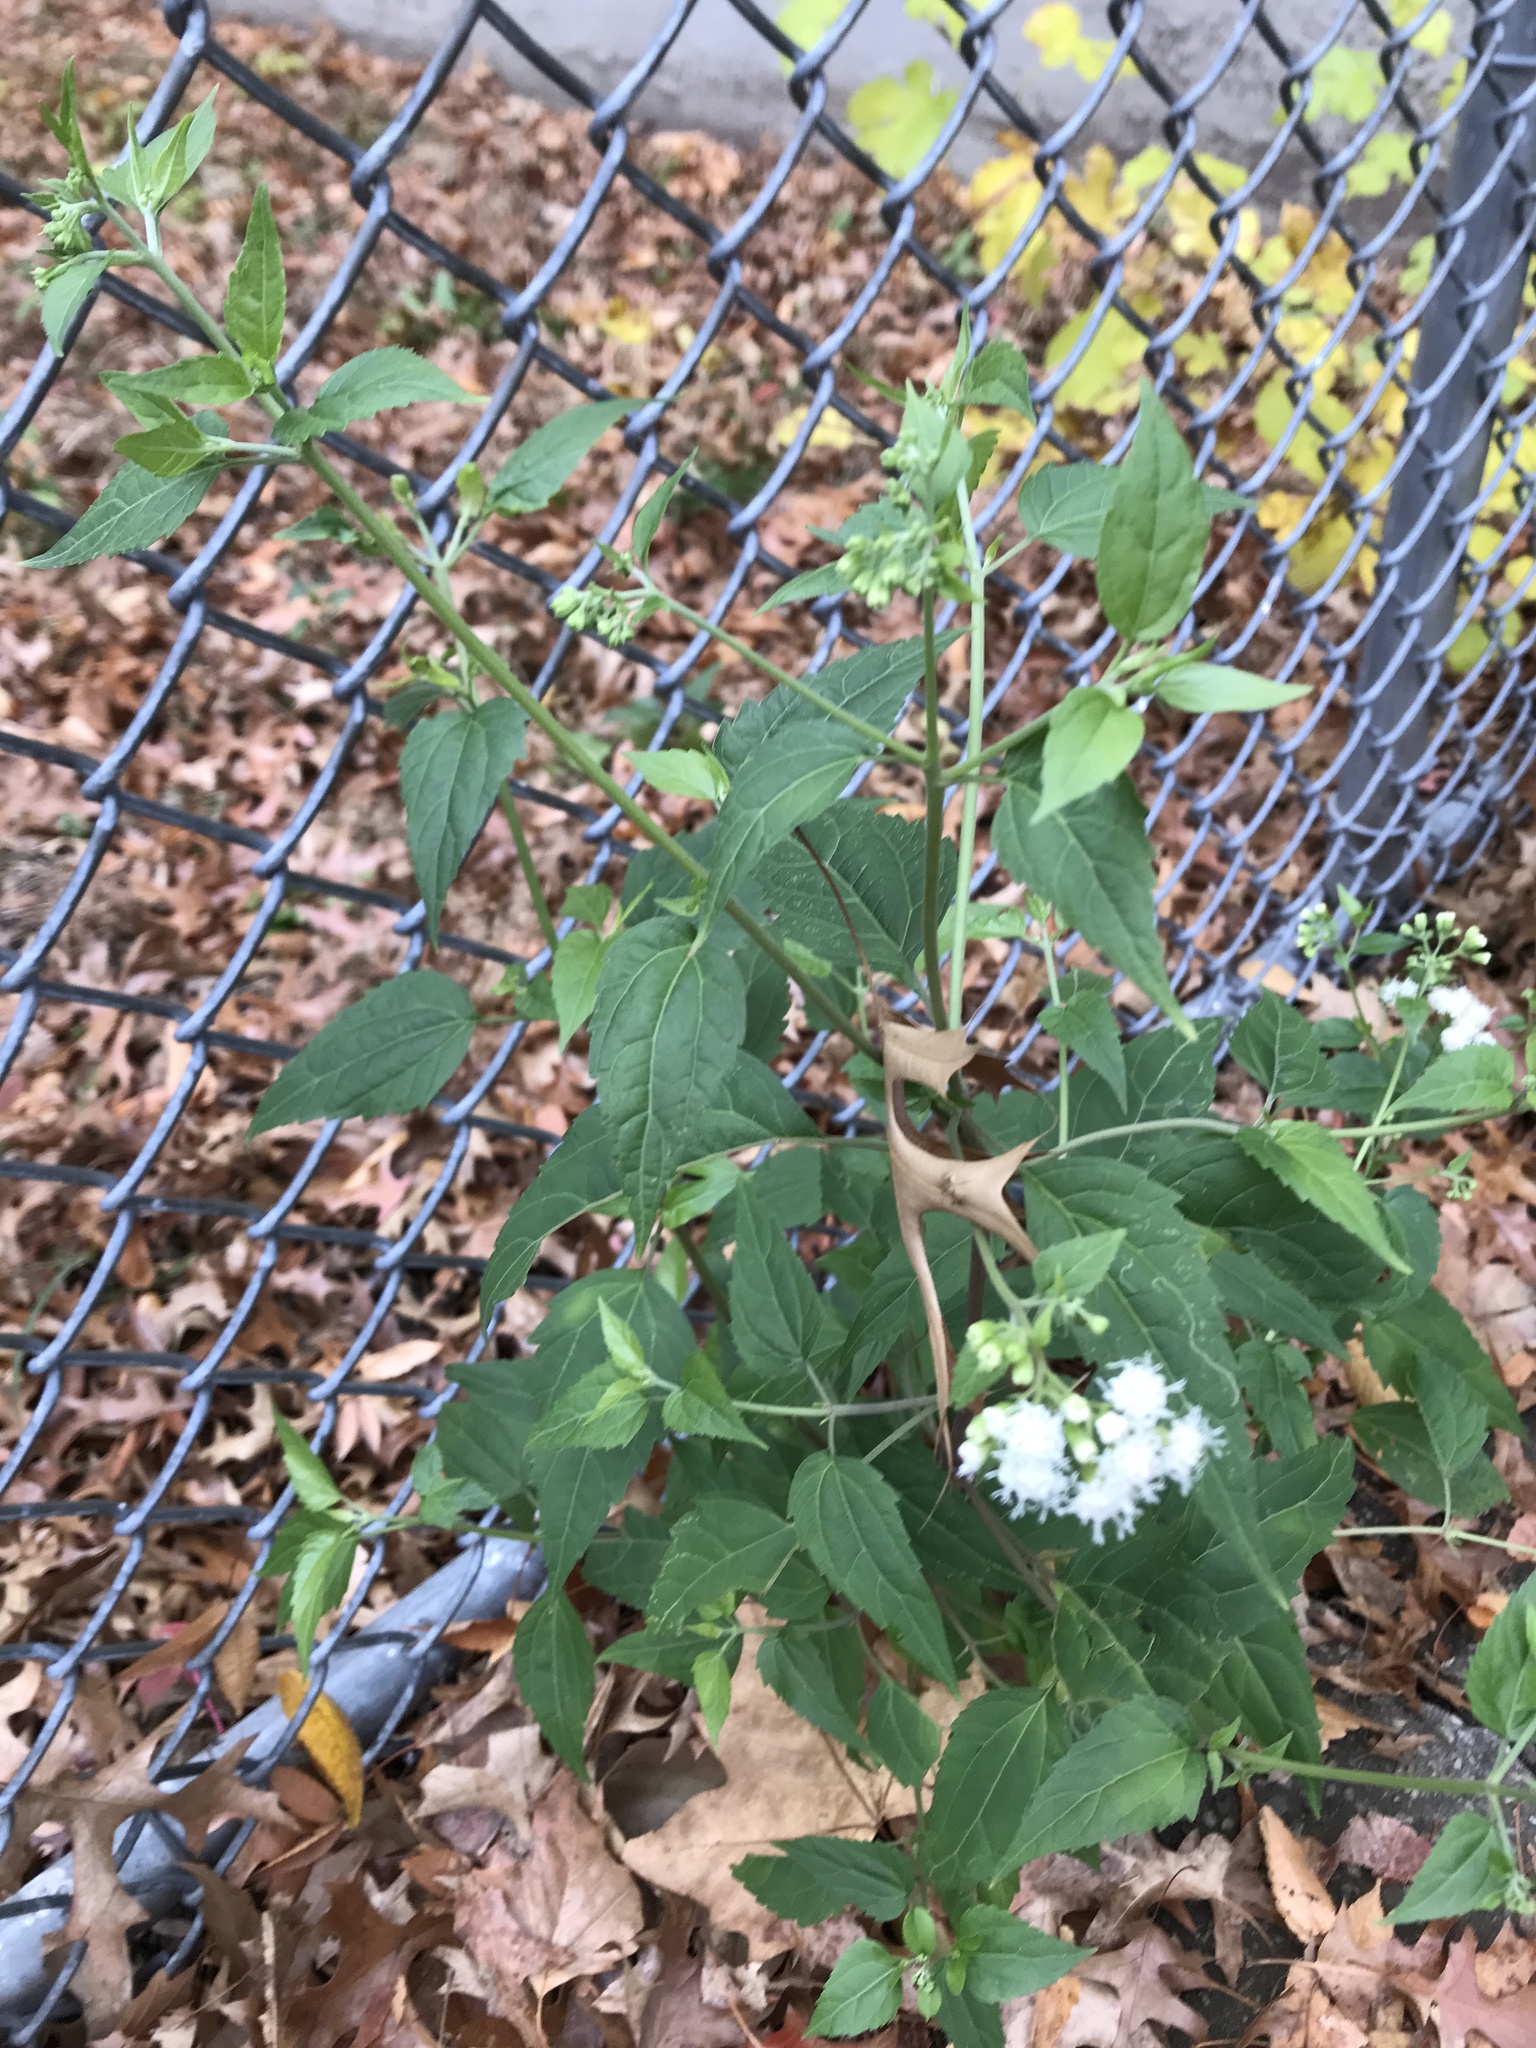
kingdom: Plantae
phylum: Tracheophyta
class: Magnoliopsida
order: Asterales
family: Asteraceae
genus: Ageratina
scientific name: Ageratina altissima
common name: White snakeroot
